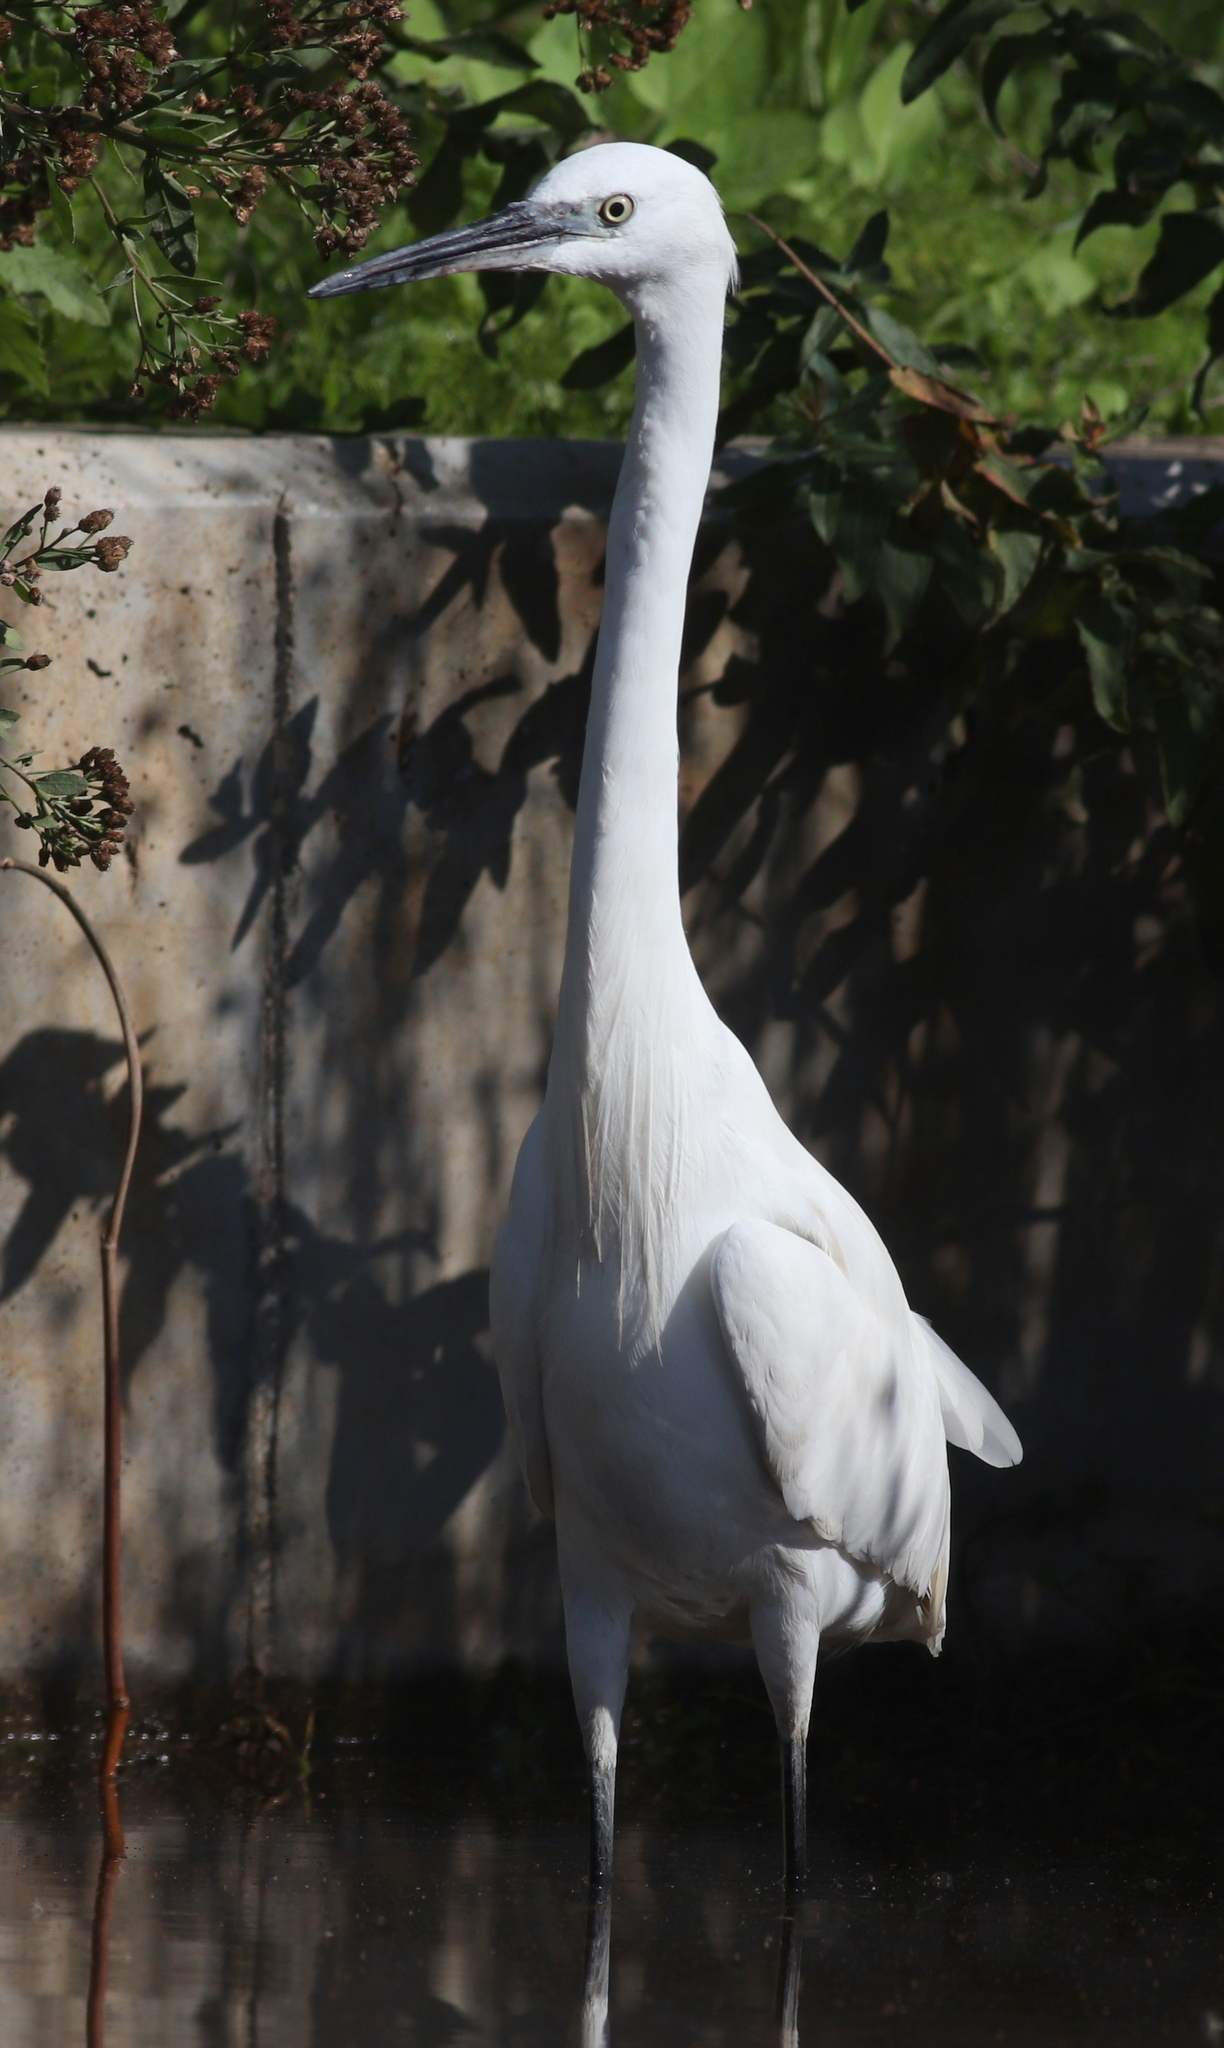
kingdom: Animalia
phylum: Chordata
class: Aves
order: Pelecaniformes
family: Ardeidae
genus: Egretta
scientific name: Egretta garzetta
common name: Little egret
